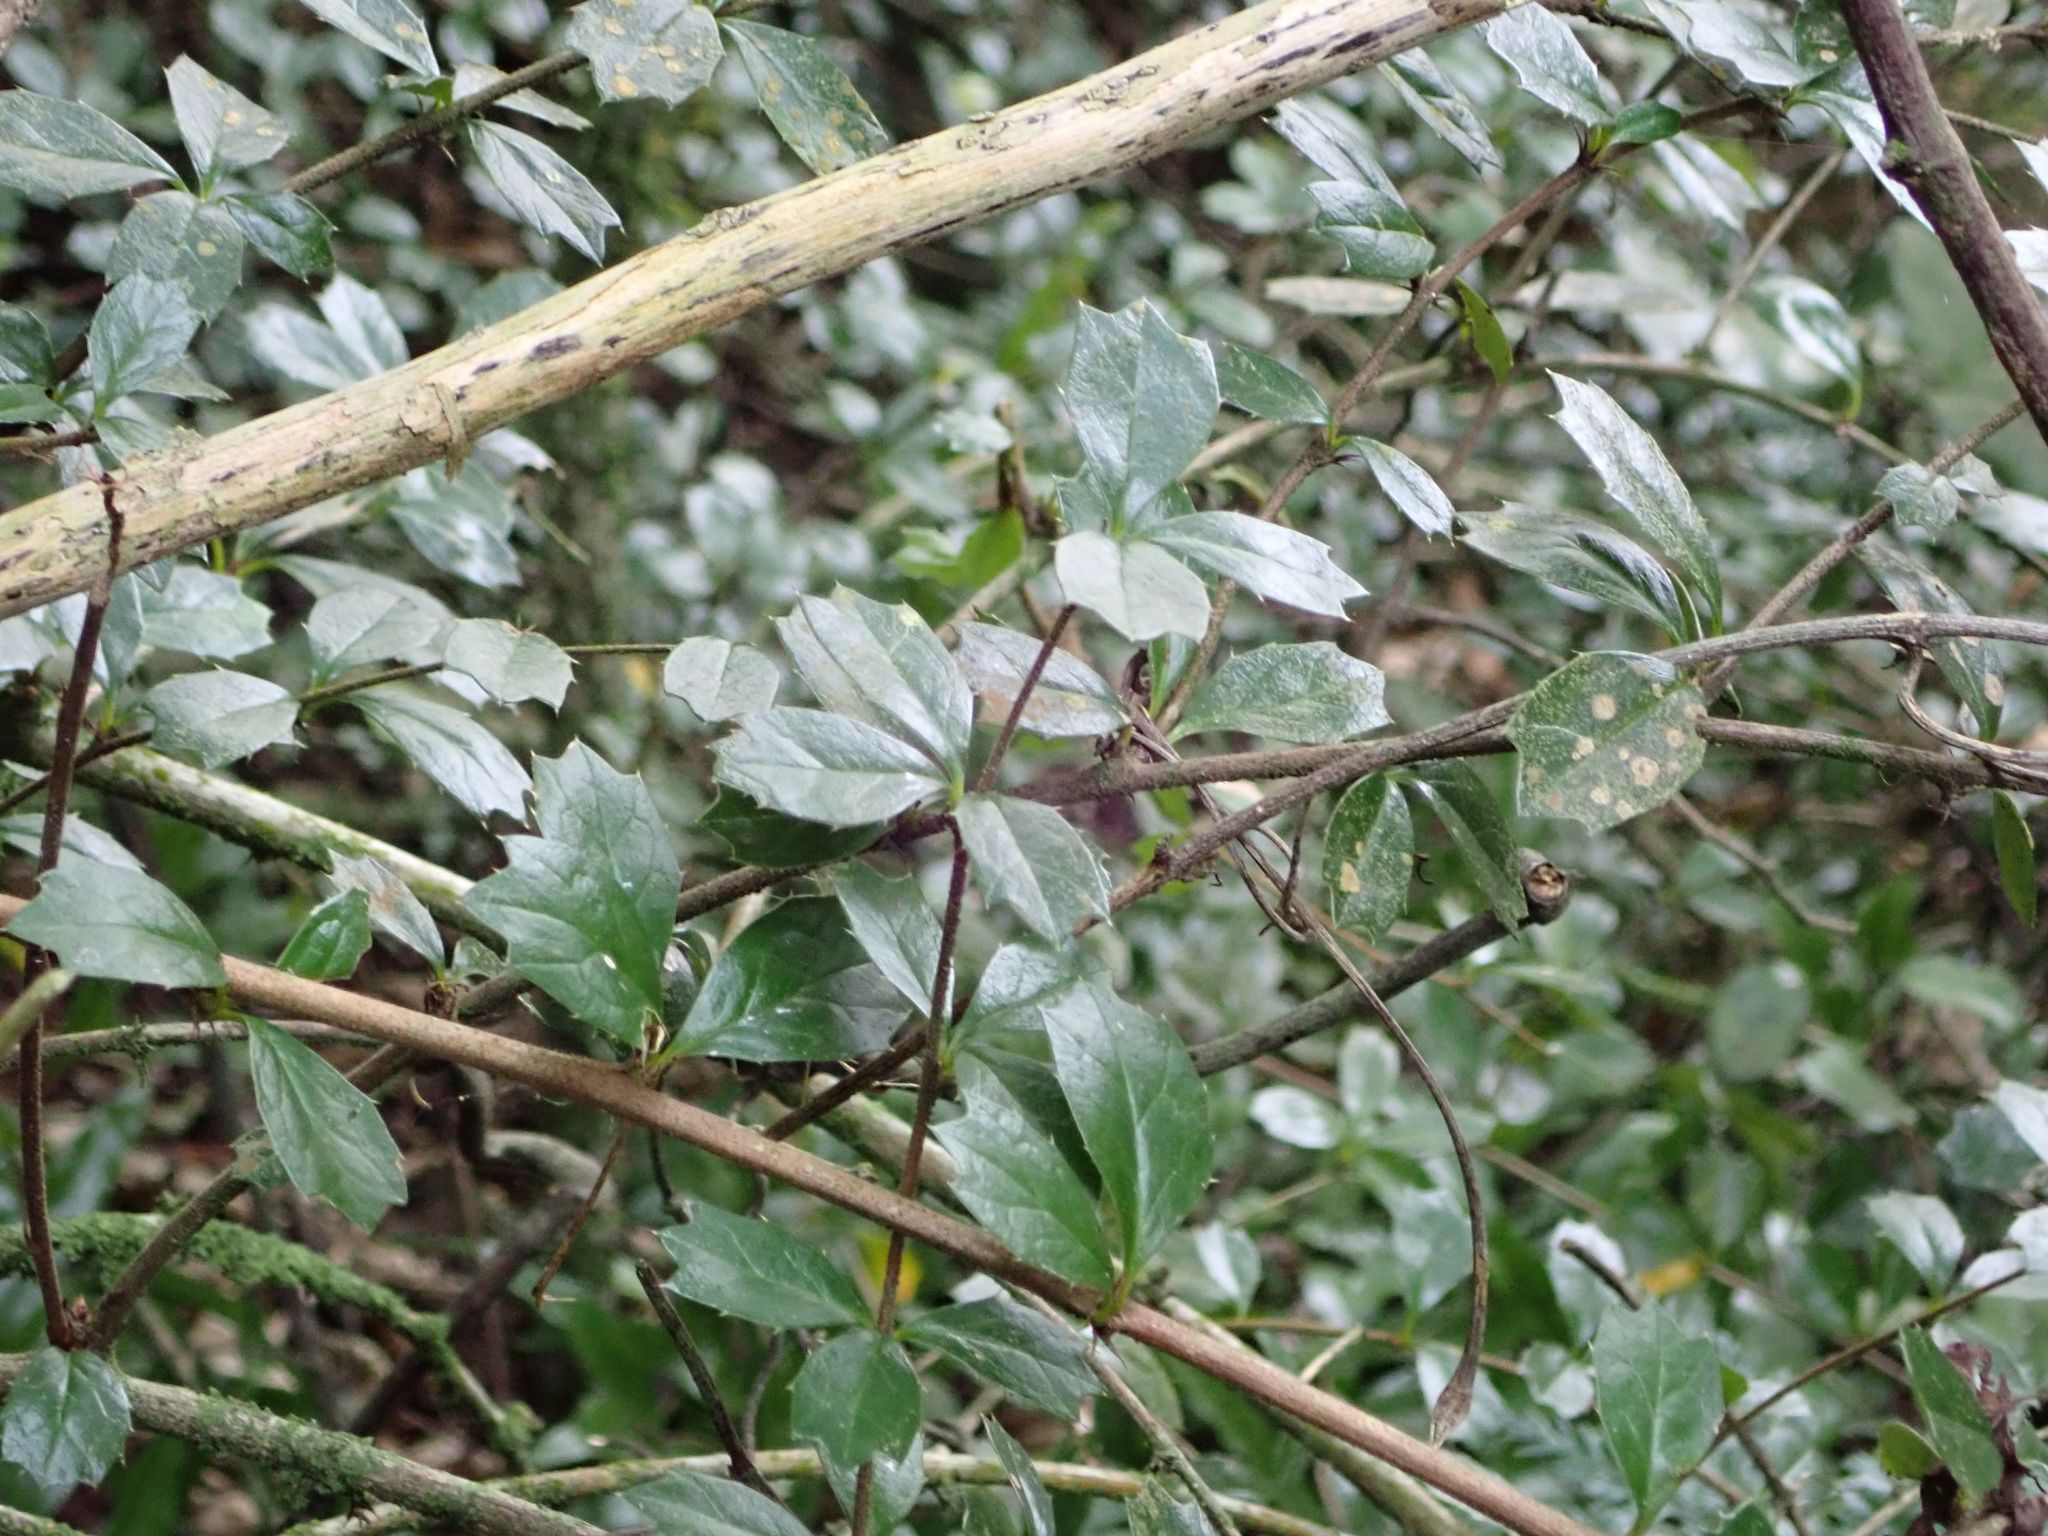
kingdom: Plantae
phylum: Tracheophyta
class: Magnoliopsida
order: Ranunculales
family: Berberidaceae
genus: Berberis
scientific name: Berberis darwinii
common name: Darwin's barberry
